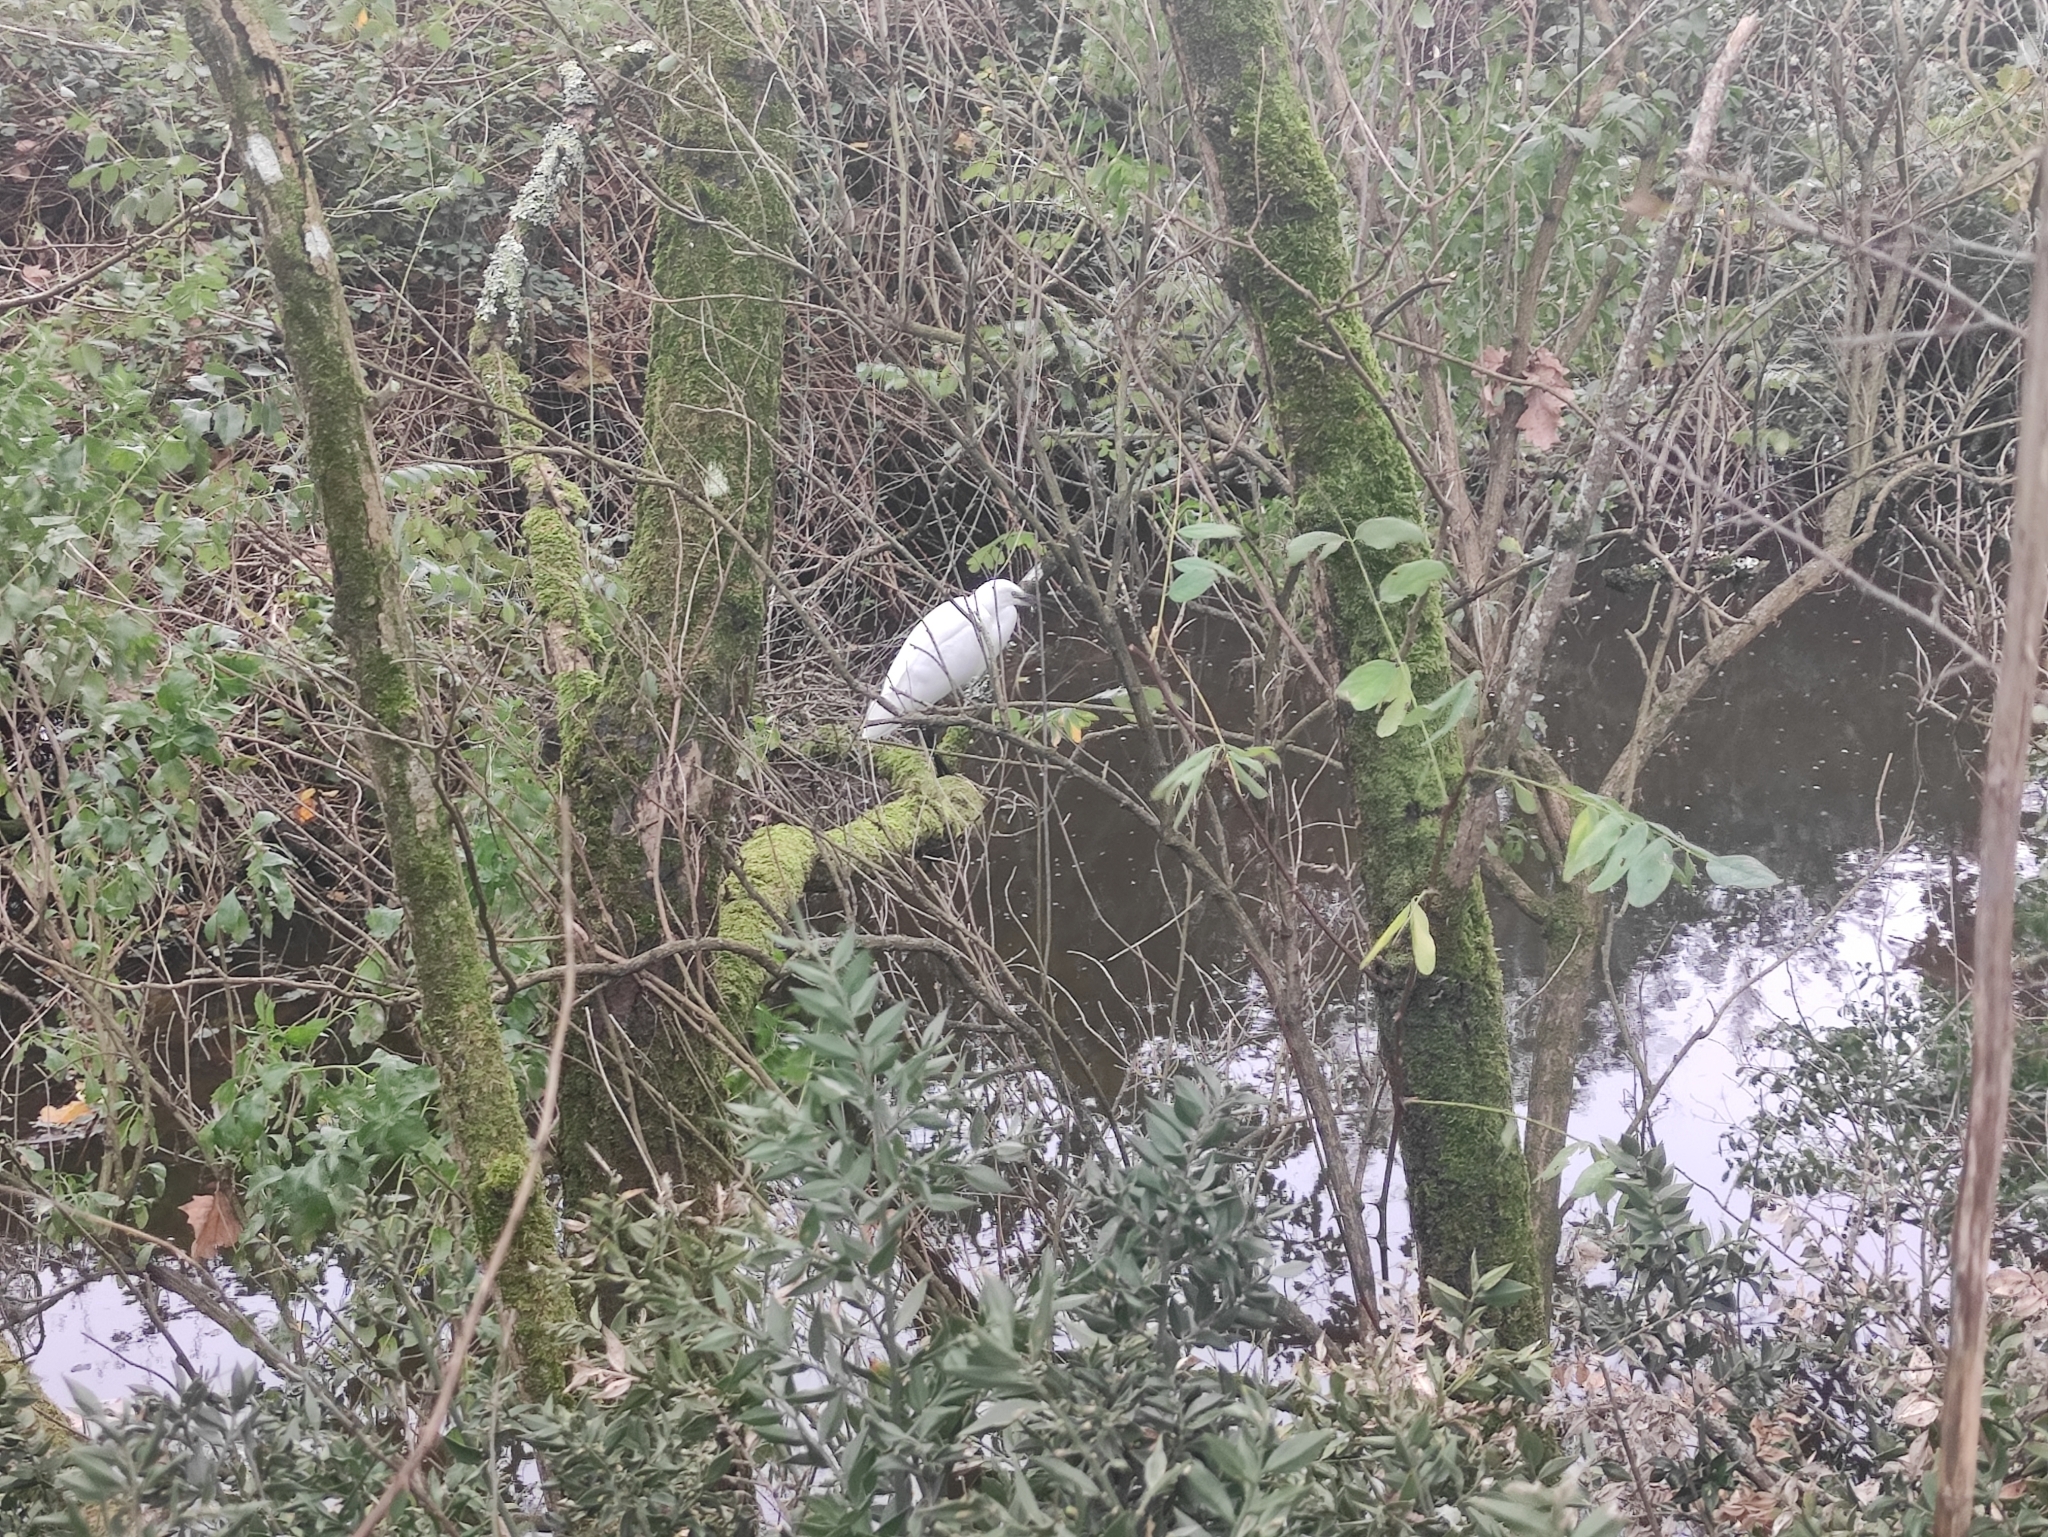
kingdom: Animalia
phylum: Chordata
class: Aves
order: Pelecaniformes
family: Ardeidae
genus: Egretta
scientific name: Egretta garzetta
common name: Little egret
